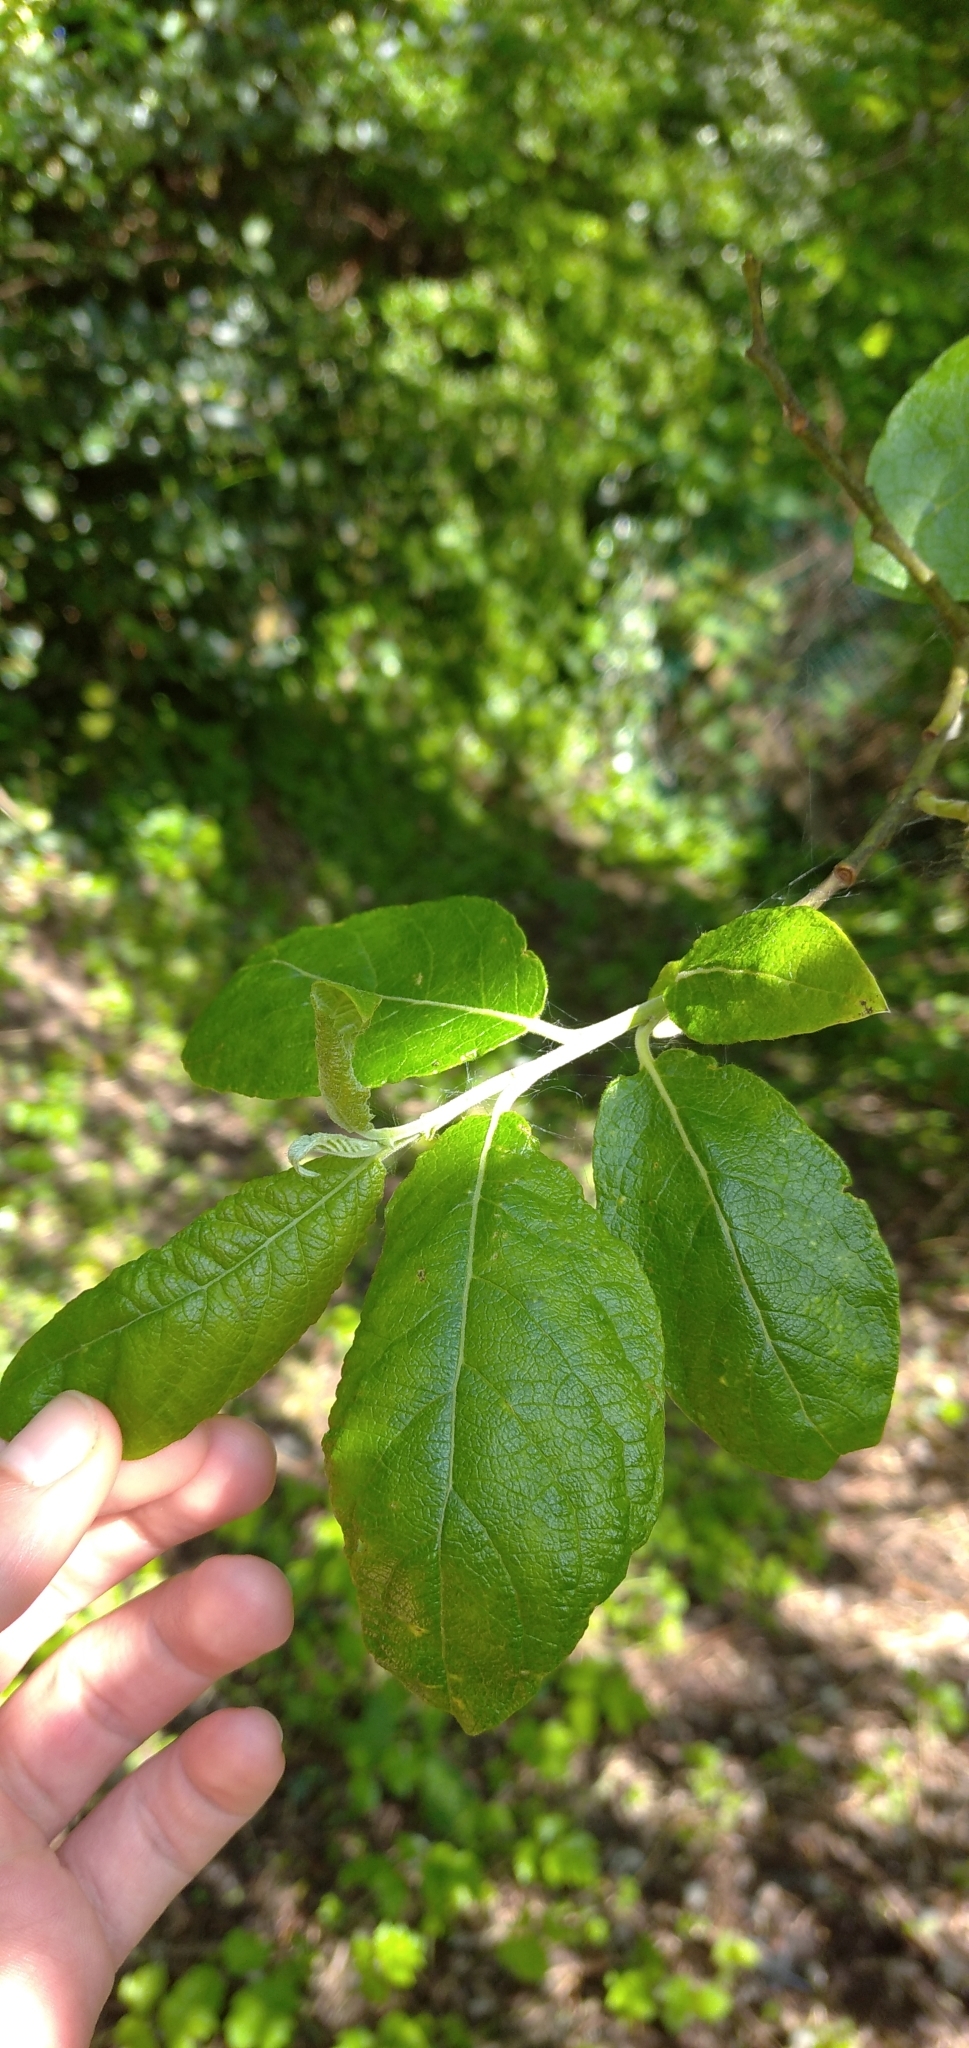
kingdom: Plantae
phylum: Tracheophyta
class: Magnoliopsida
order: Malpighiales
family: Salicaceae
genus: Salix
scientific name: Salix caprea
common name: Goat willow
